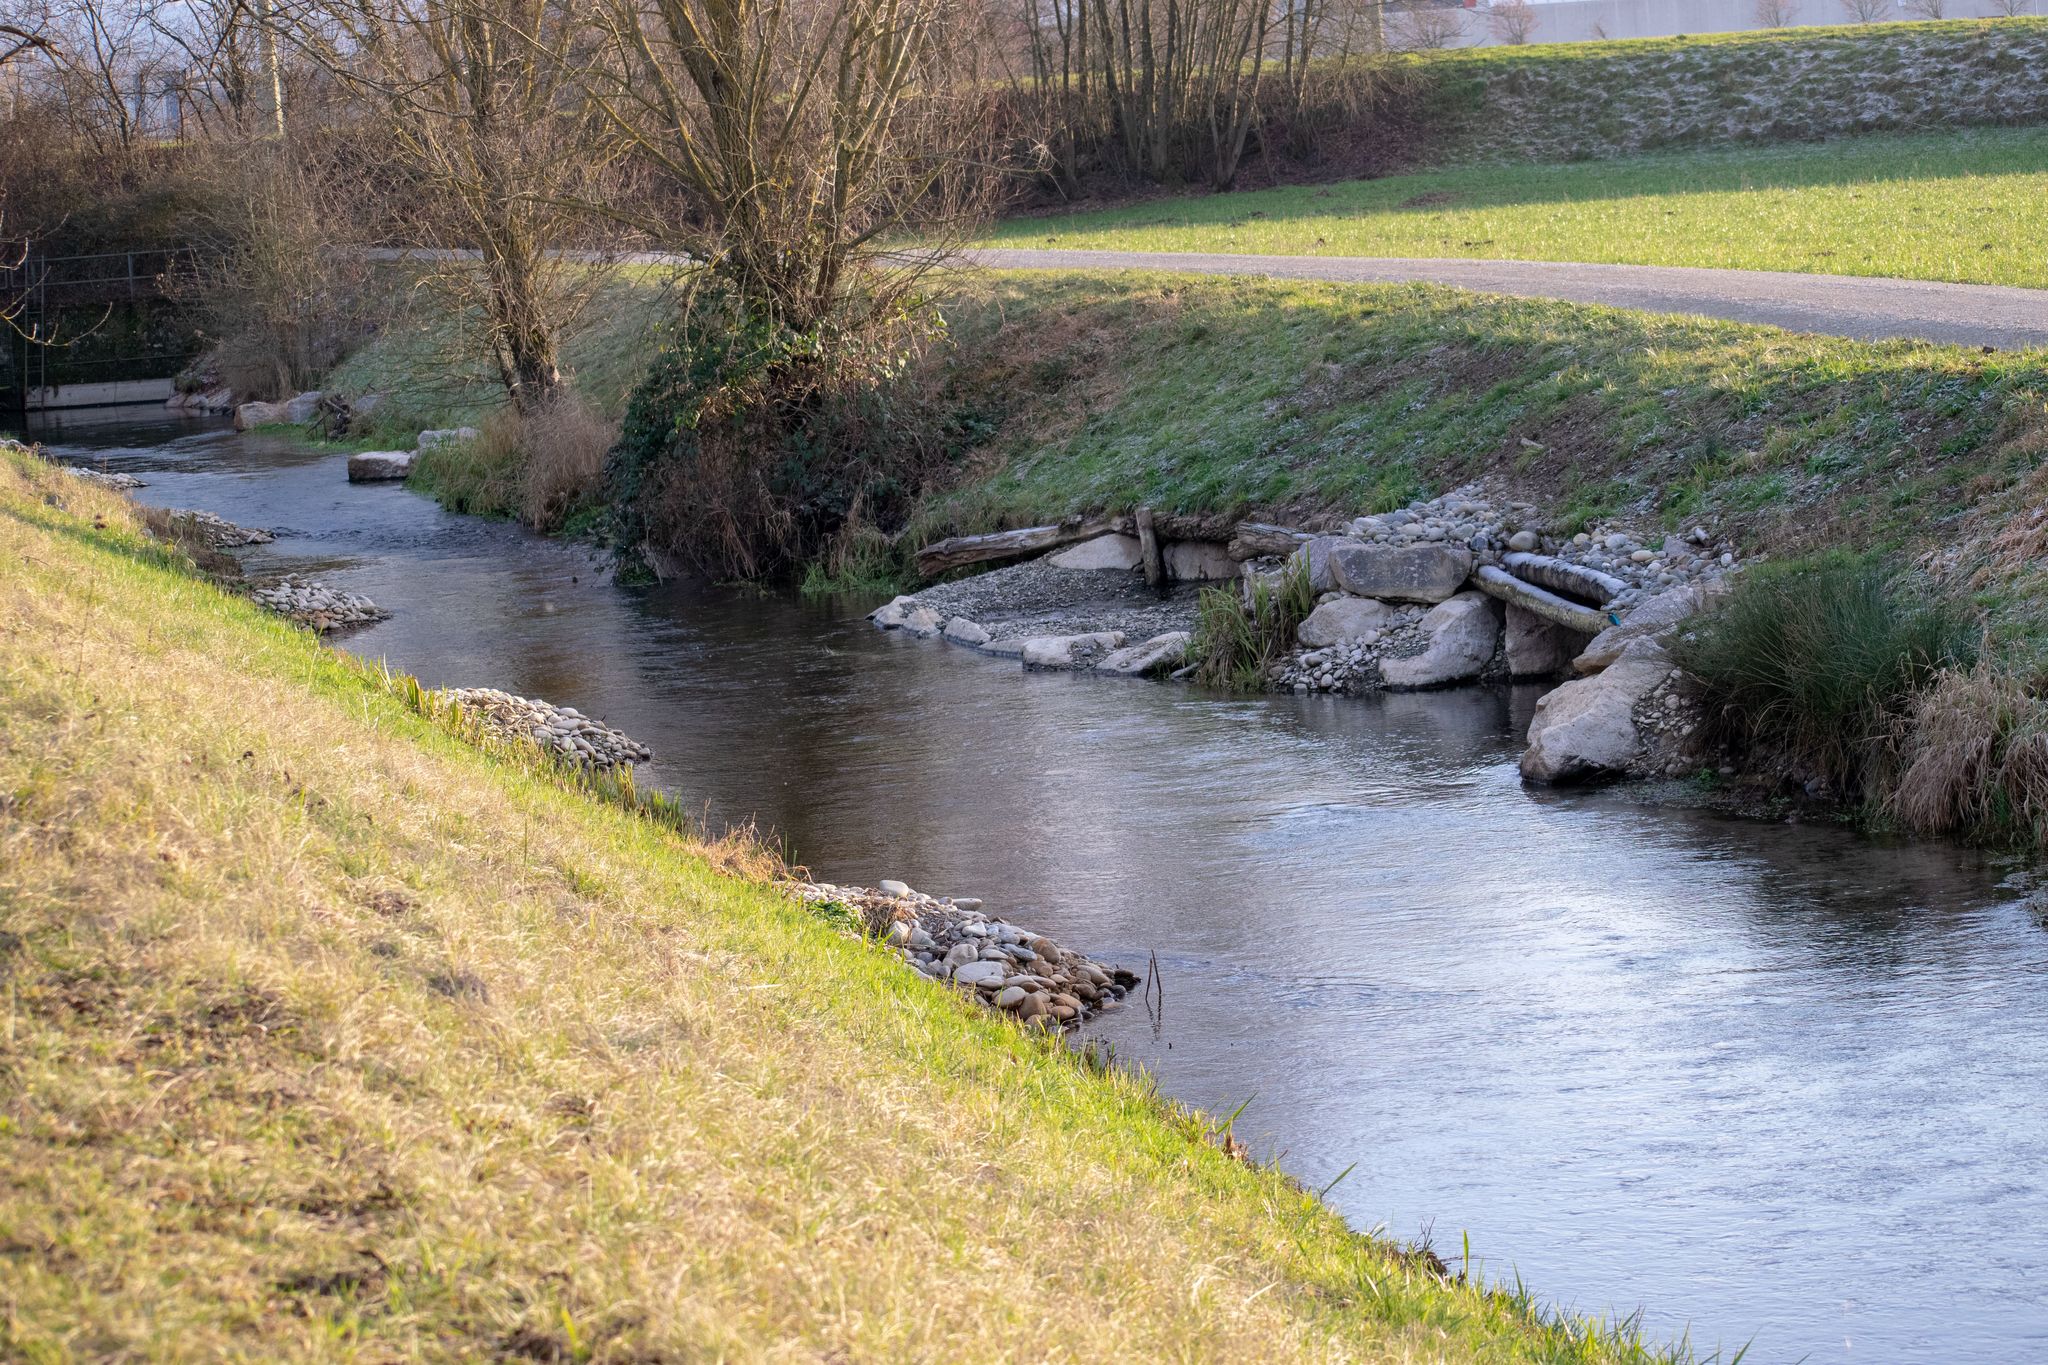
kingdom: Animalia
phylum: Chordata
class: Aves
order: Coraciiformes
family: Alcedinidae
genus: Alcedo
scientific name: Alcedo atthis
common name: Common kingfisher
